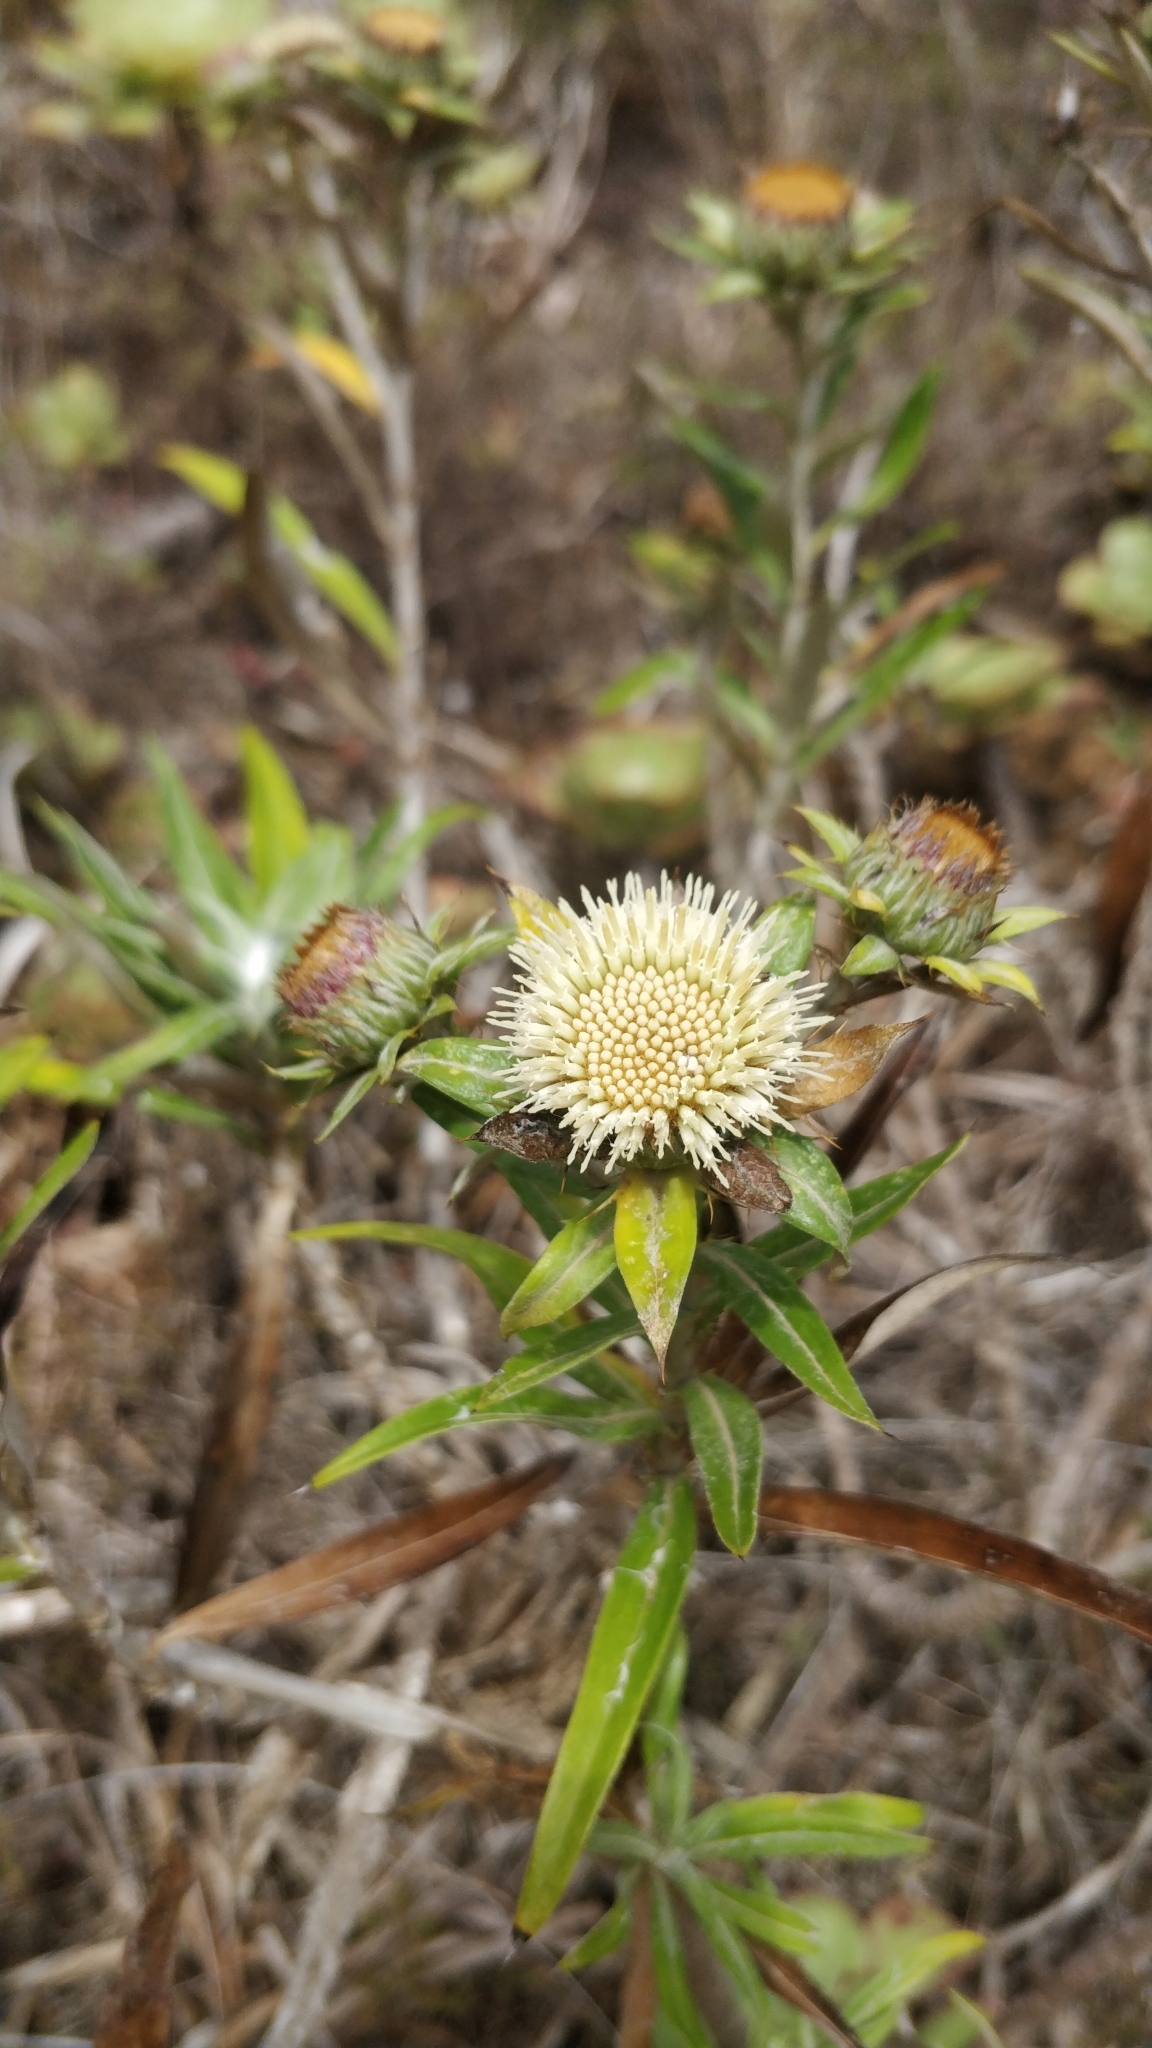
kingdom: Plantae
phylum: Tracheophyta
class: Magnoliopsida
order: Asterales
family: Asteraceae
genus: Carlina
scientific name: Carlina salicifolia
